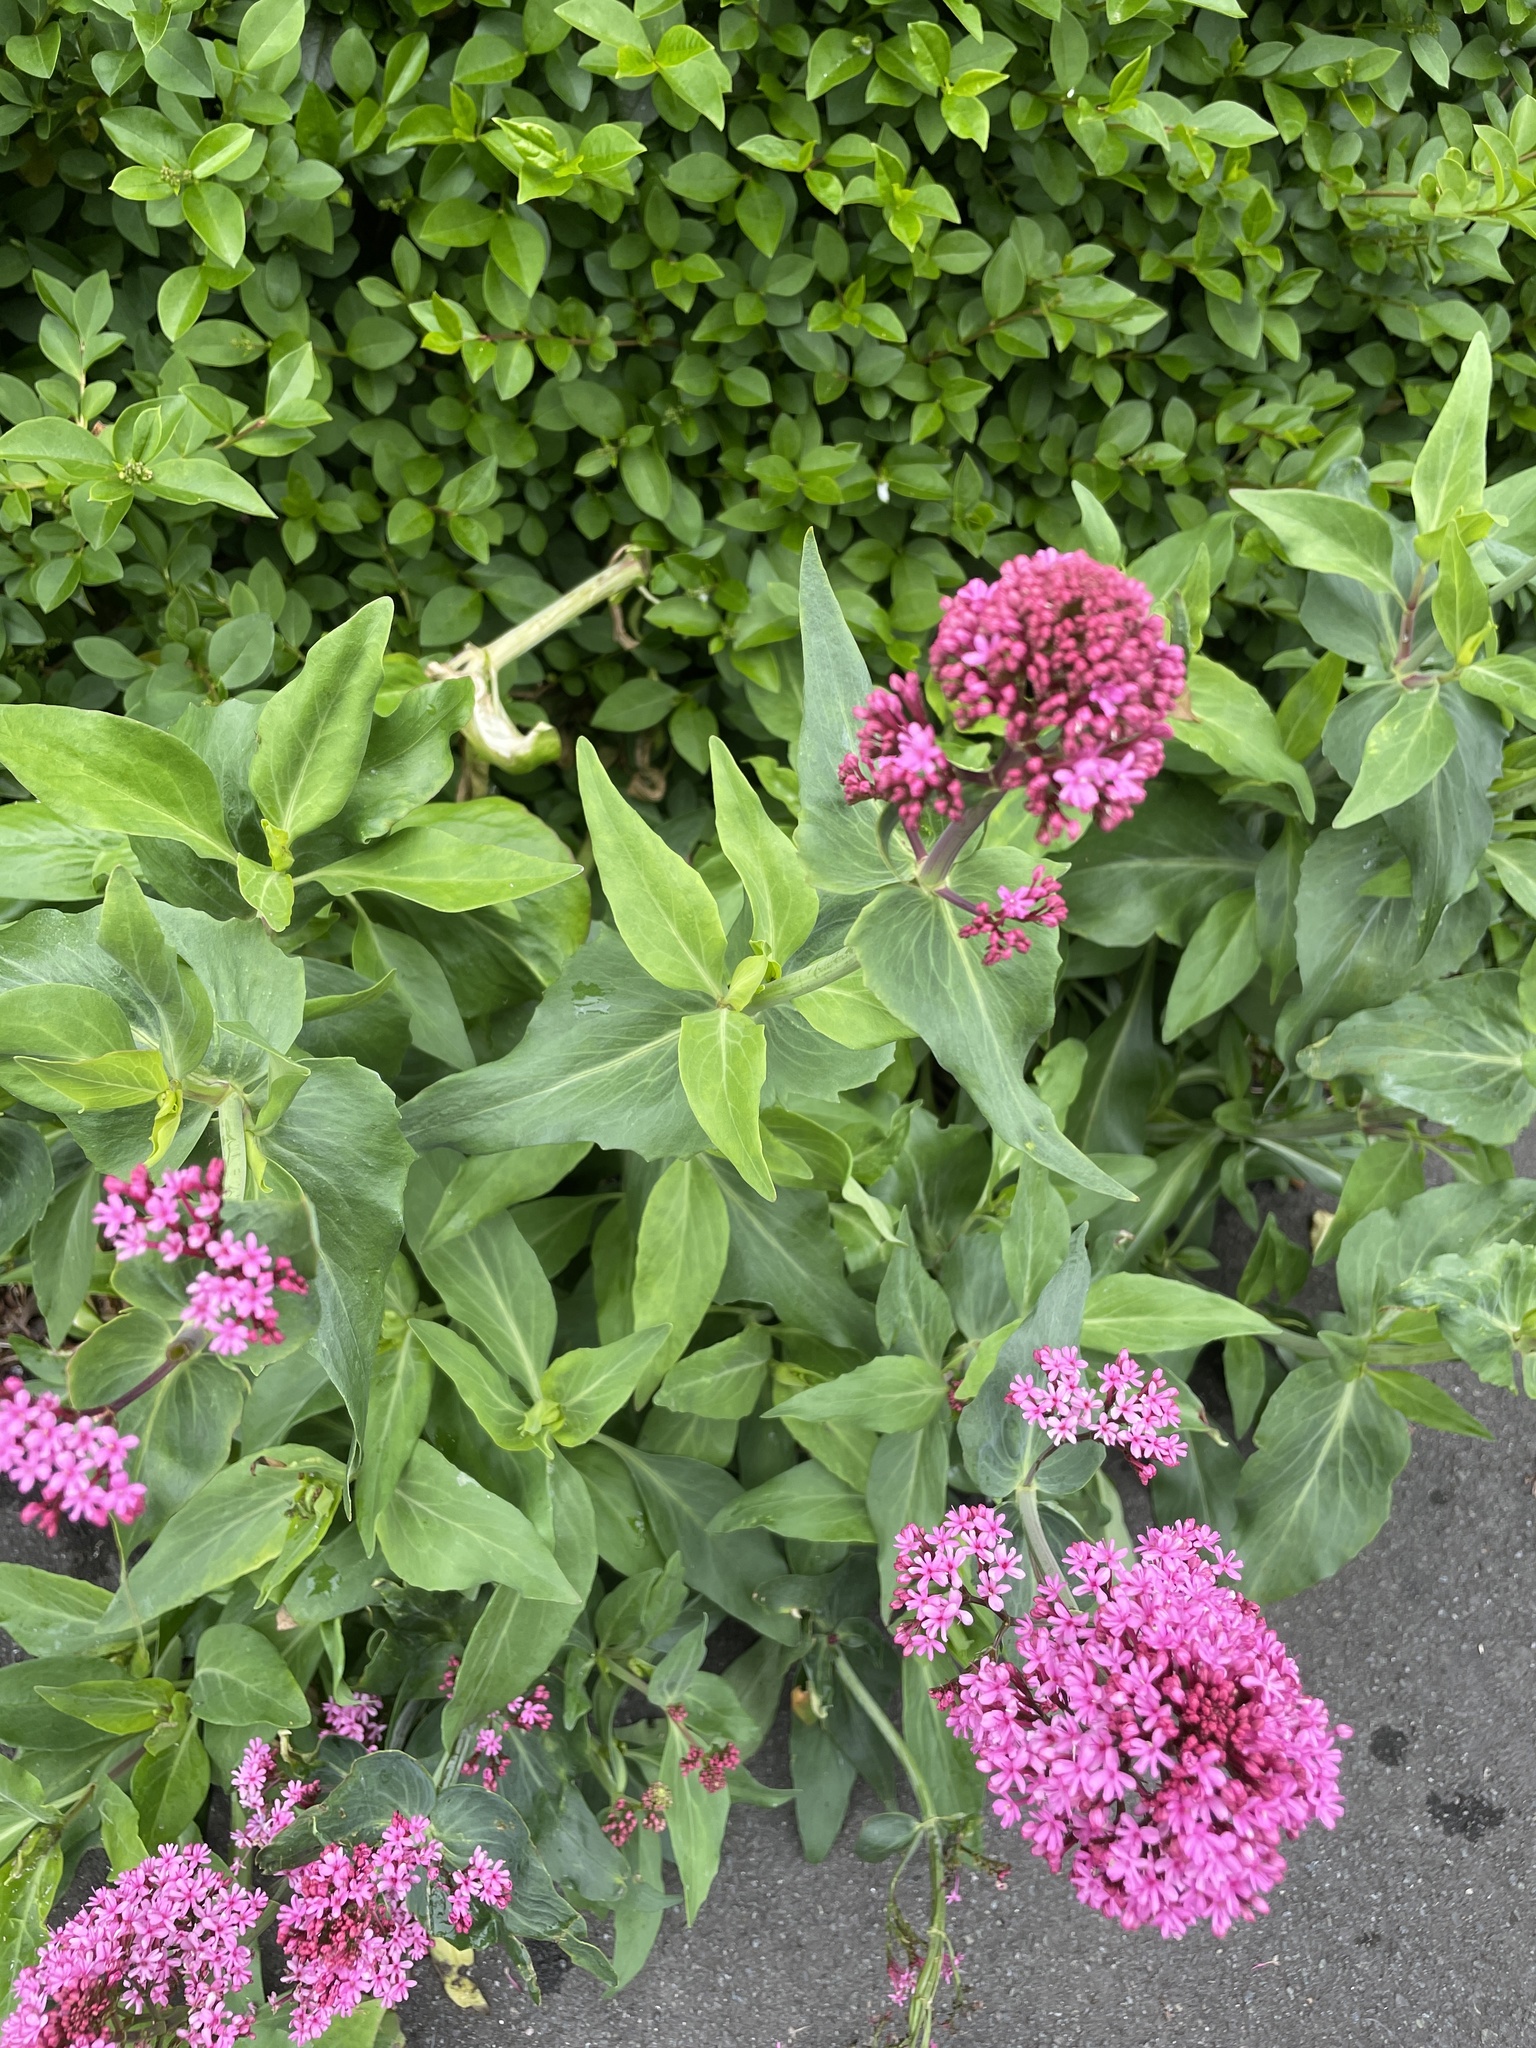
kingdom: Plantae
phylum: Tracheophyta
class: Magnoliopsida
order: Dipsacales
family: Caprifoliaceae
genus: Centranthus
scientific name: Centranthus ruber
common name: Red valerian
